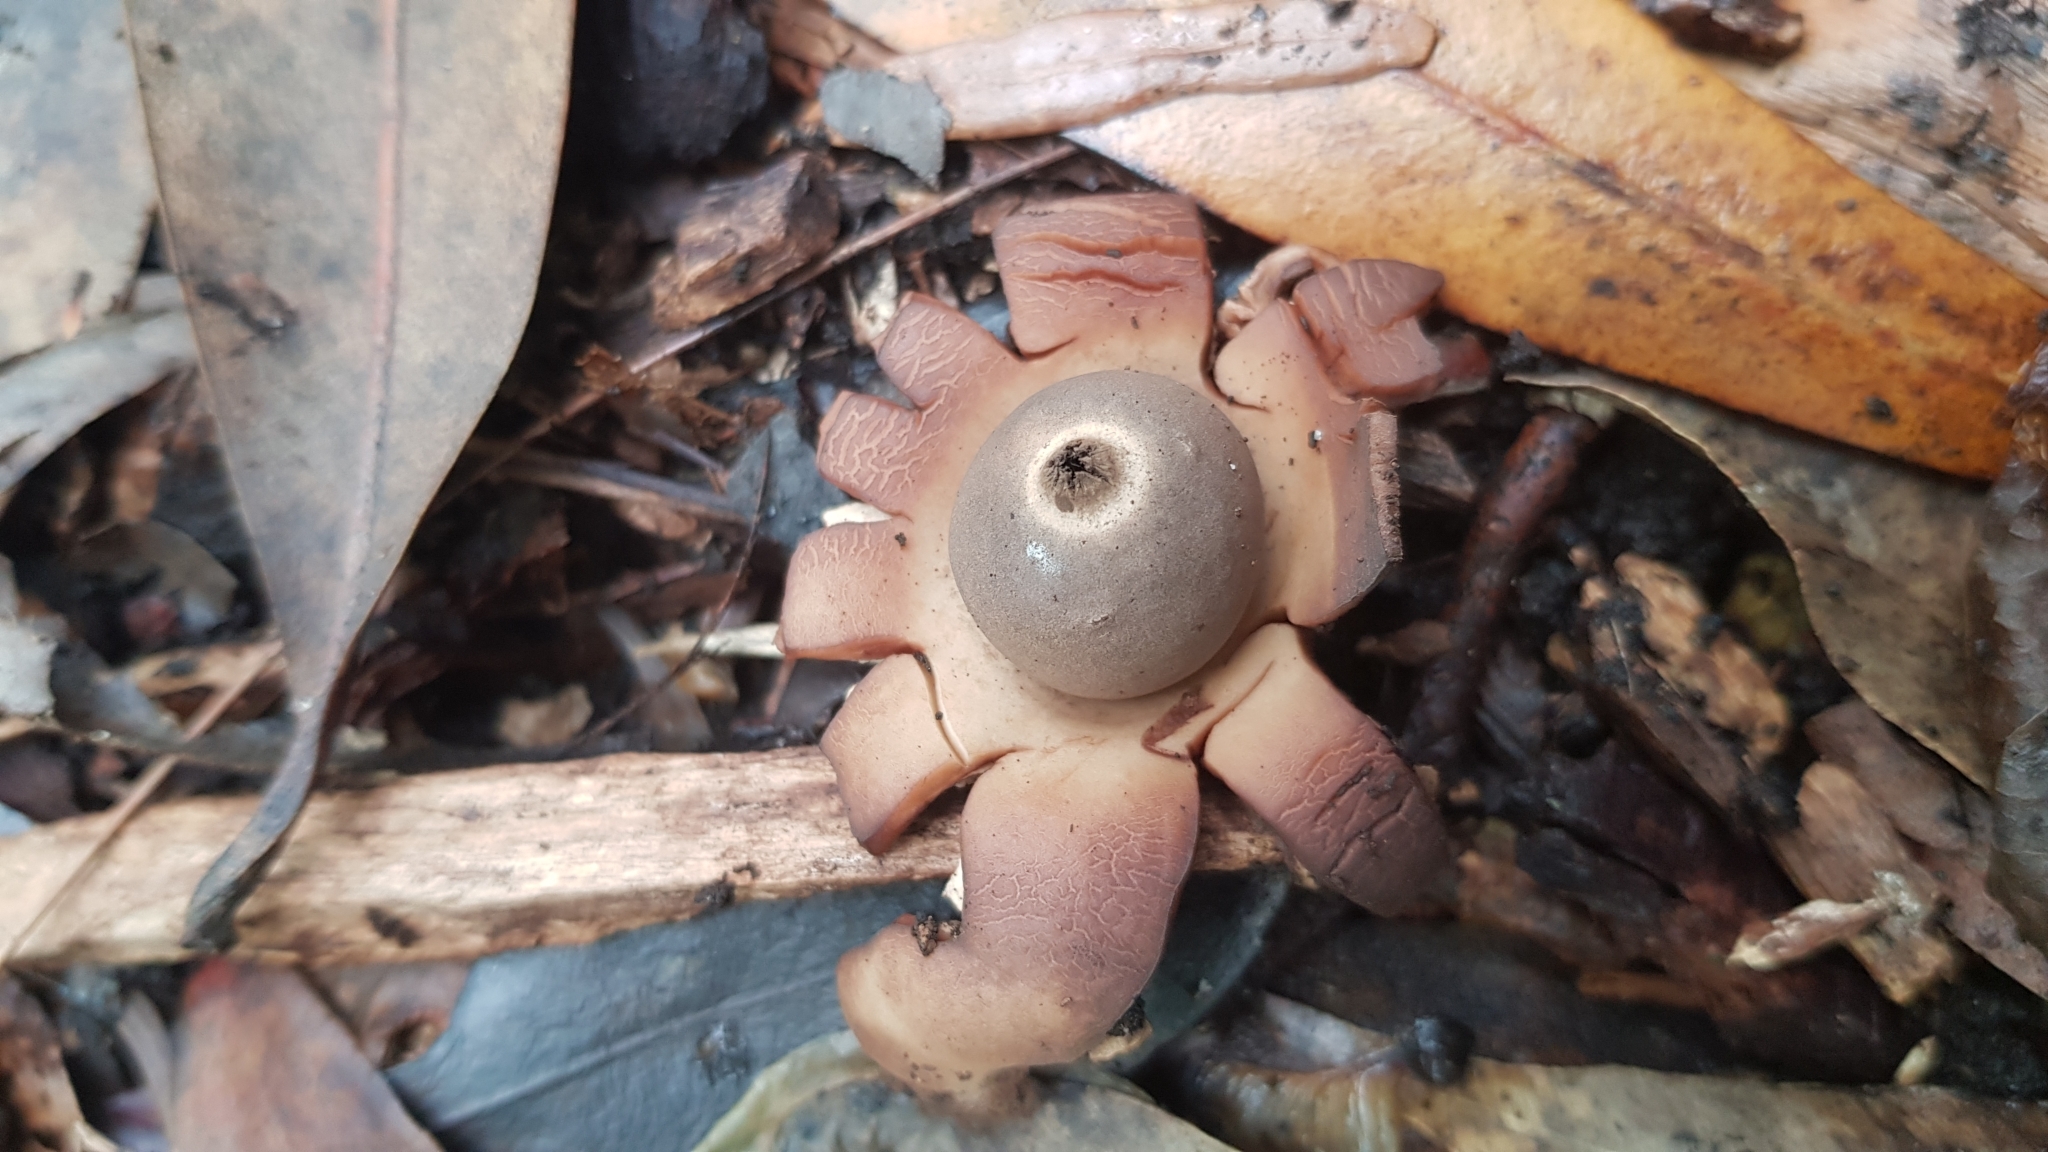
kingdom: Fungi
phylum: Basidiomycota
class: Agaricomycetes
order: Geastrales
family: Geastraceae
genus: Geastrum
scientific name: Geastrum triplex
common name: Collared earthstar
